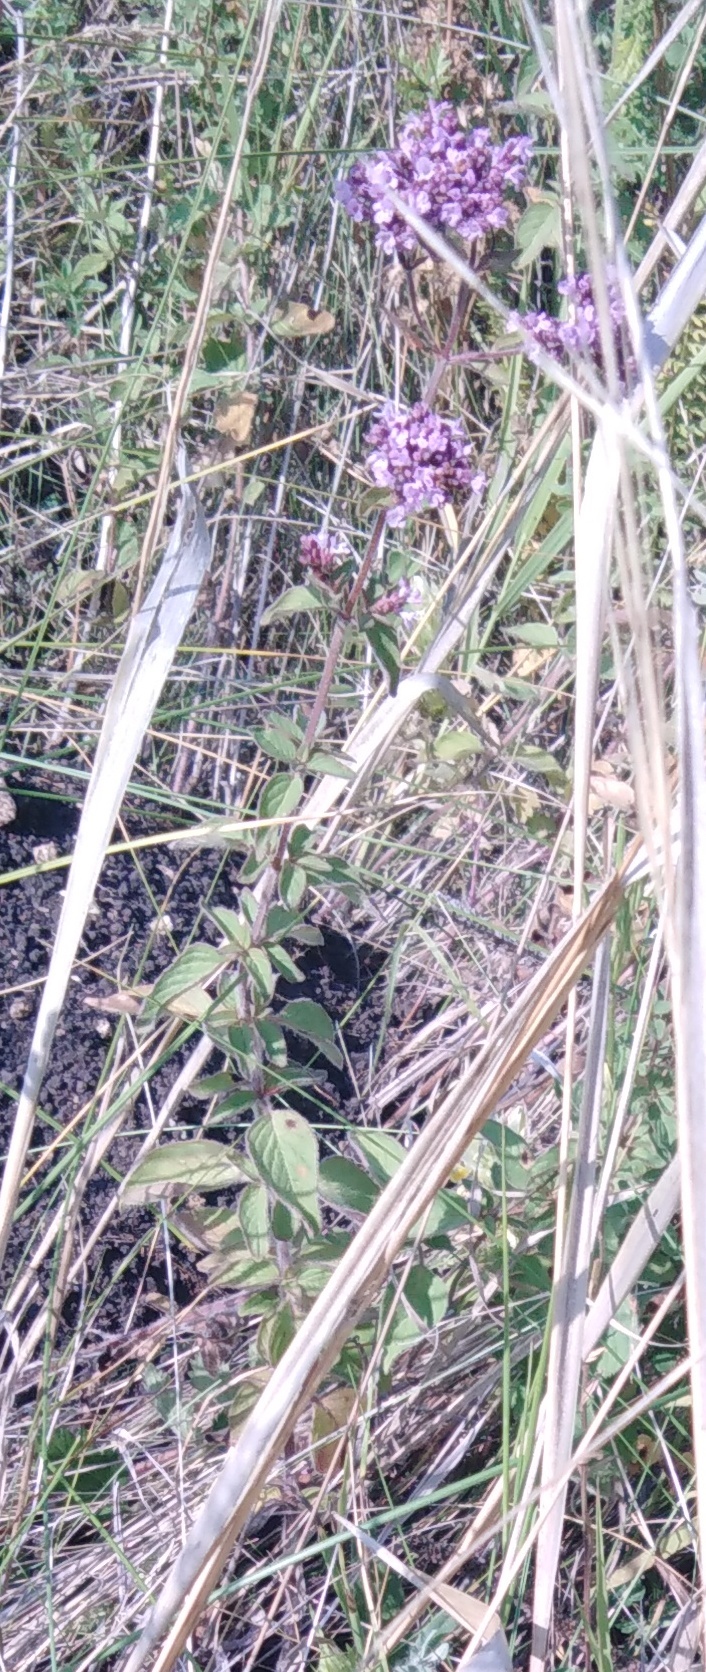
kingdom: Plantae
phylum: Tracheophyta
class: Magnoliopsida
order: Lamiales
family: Lamiaceae
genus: Origanum
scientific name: Origanum vulgare
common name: Wild marjoram
